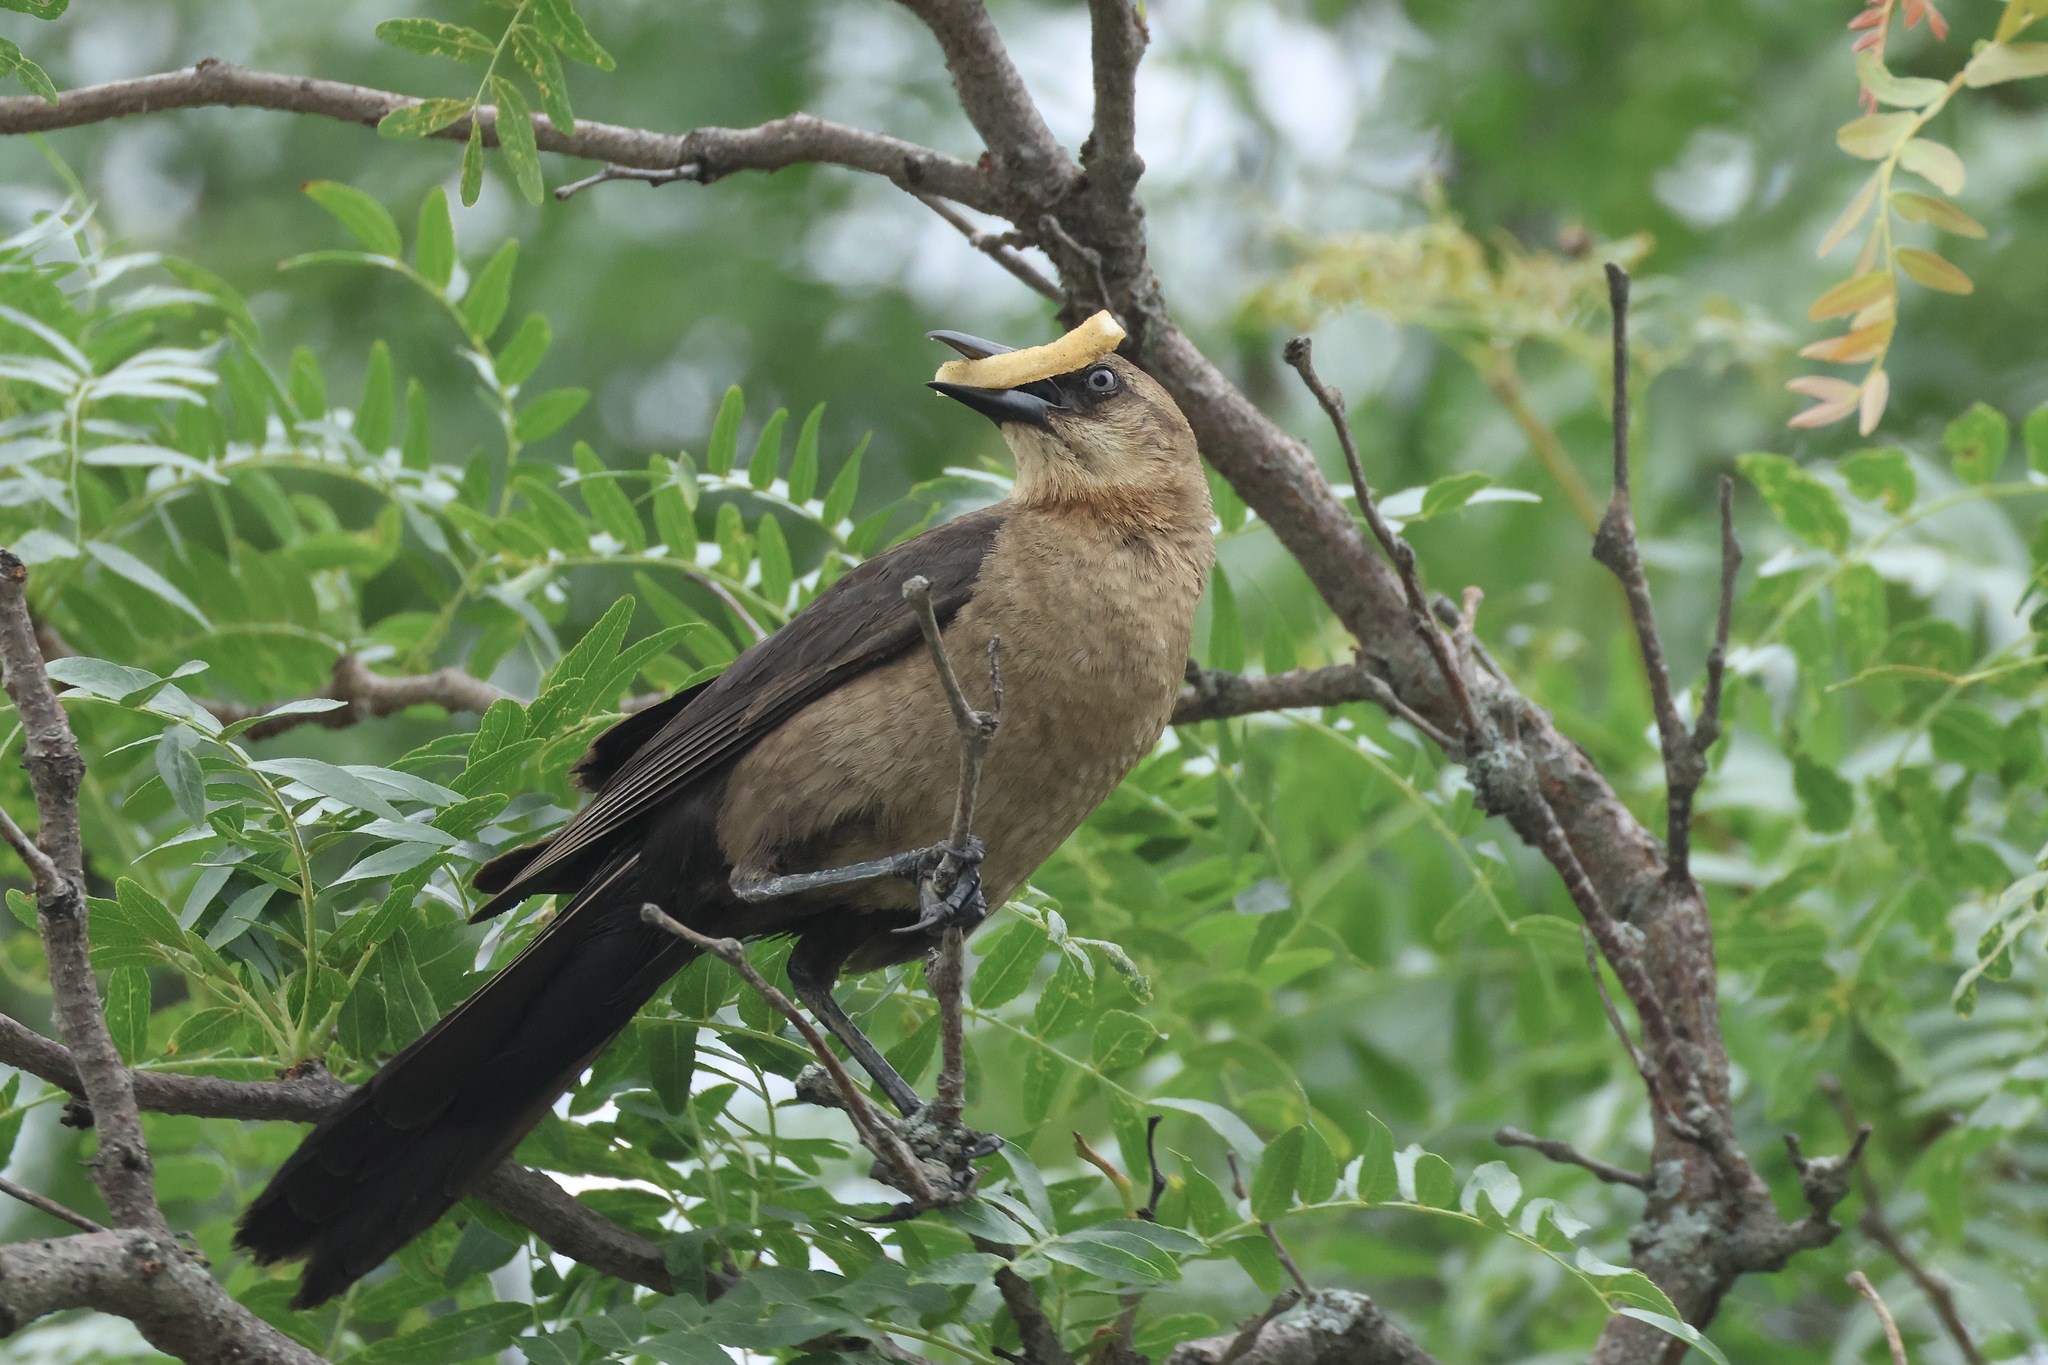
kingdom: Animalia
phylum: Chordata
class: Aves
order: Passeriformes
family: Icteridae
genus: Quiscalus
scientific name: Quiscalus major
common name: Boat-tailed grackle
